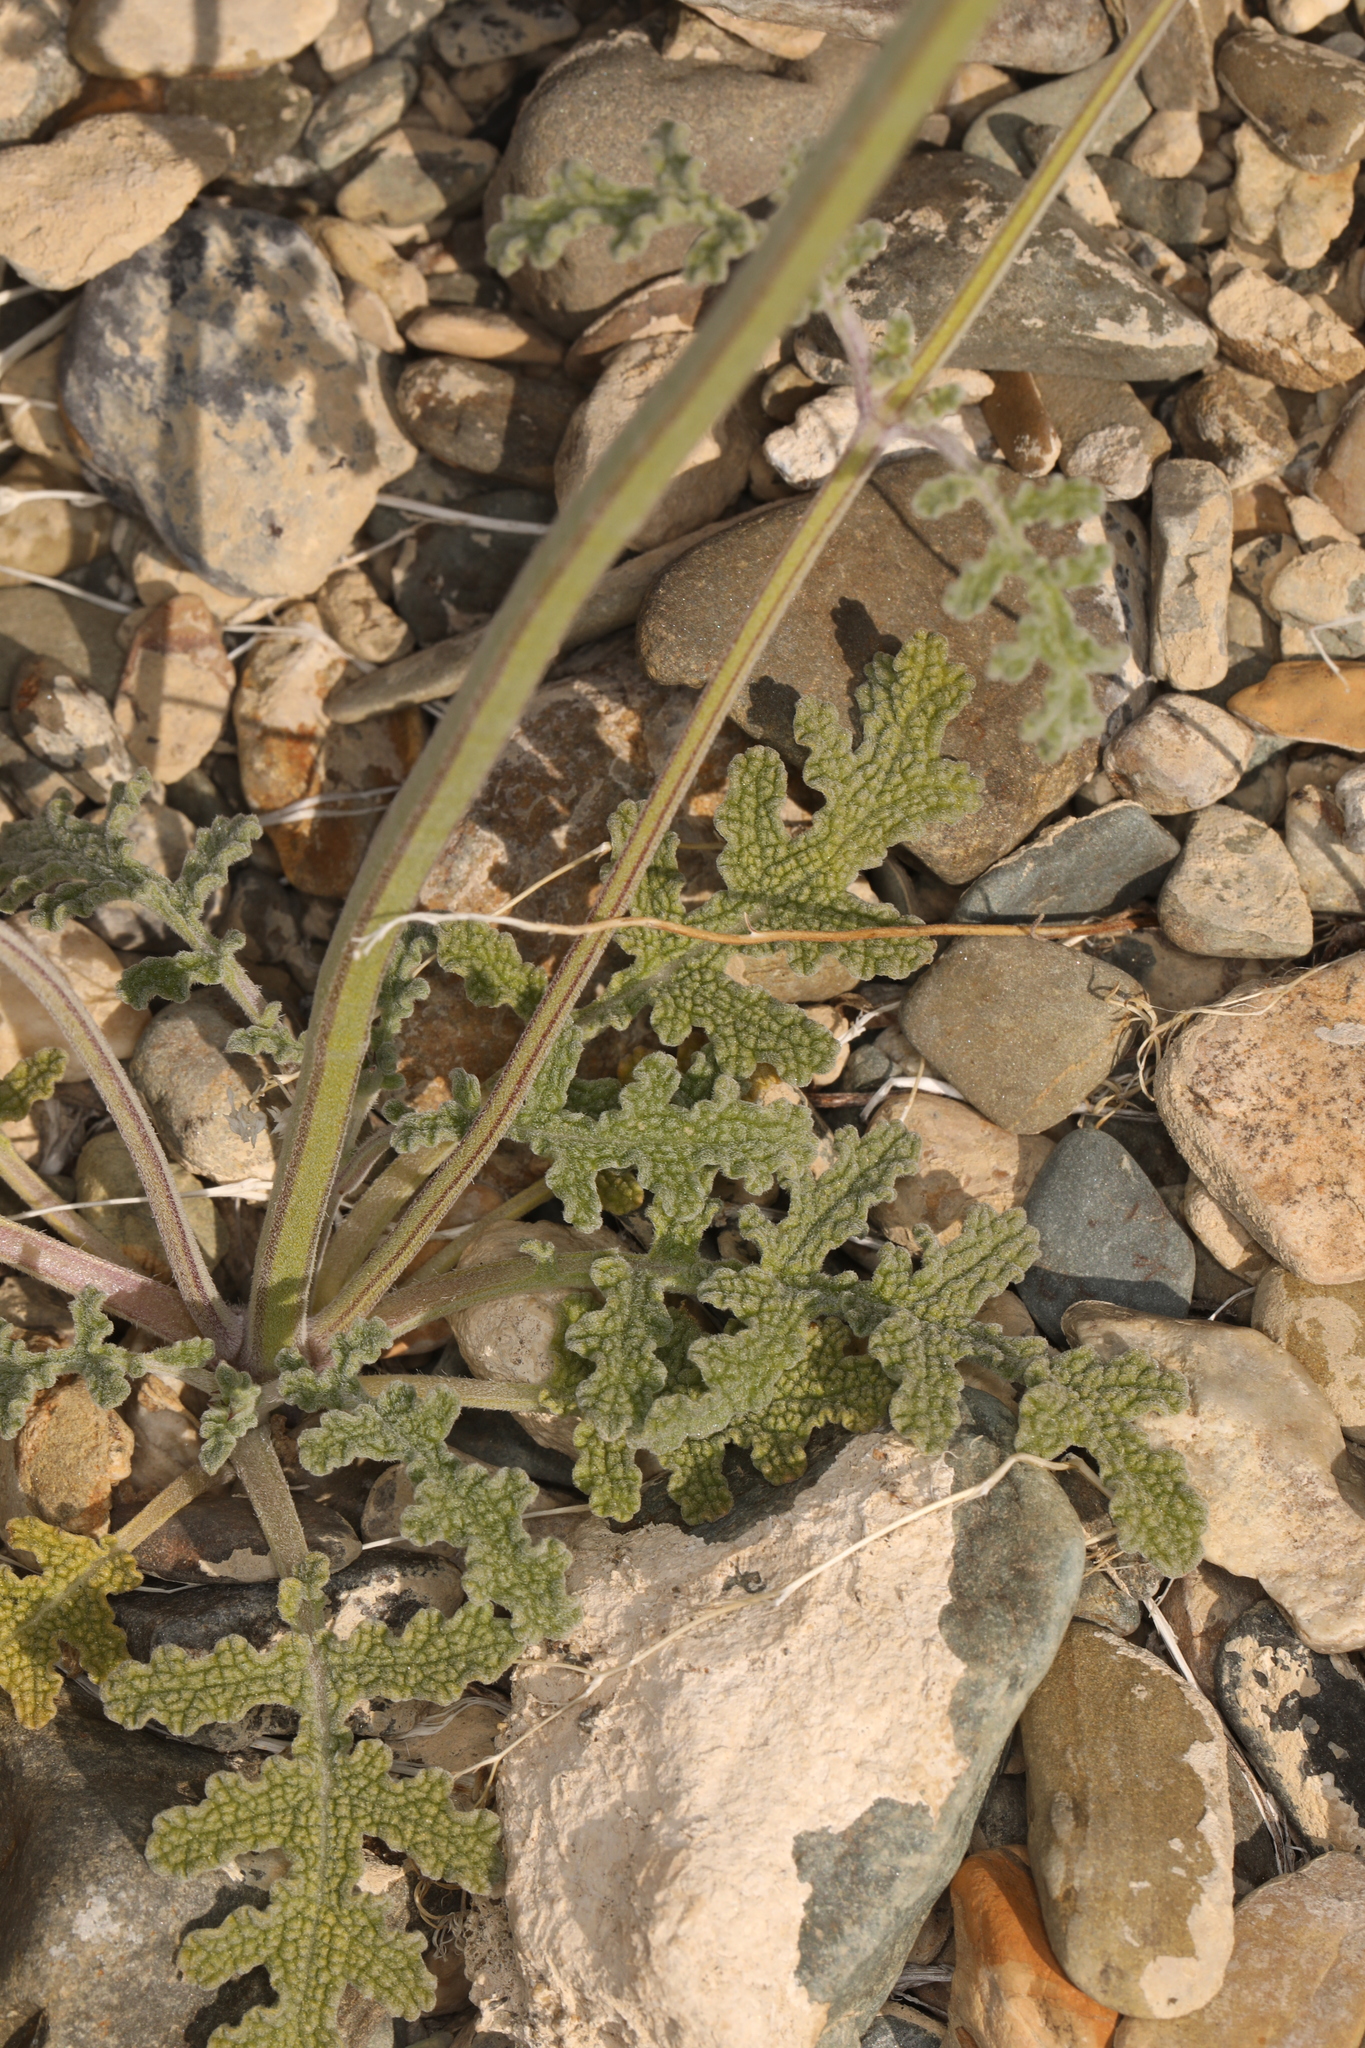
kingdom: Plantae
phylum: Tracheophyta
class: Magnoliopsida
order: Lamiales
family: Lamiaceae
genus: Salvia
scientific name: Salvia columbariae
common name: Chia
